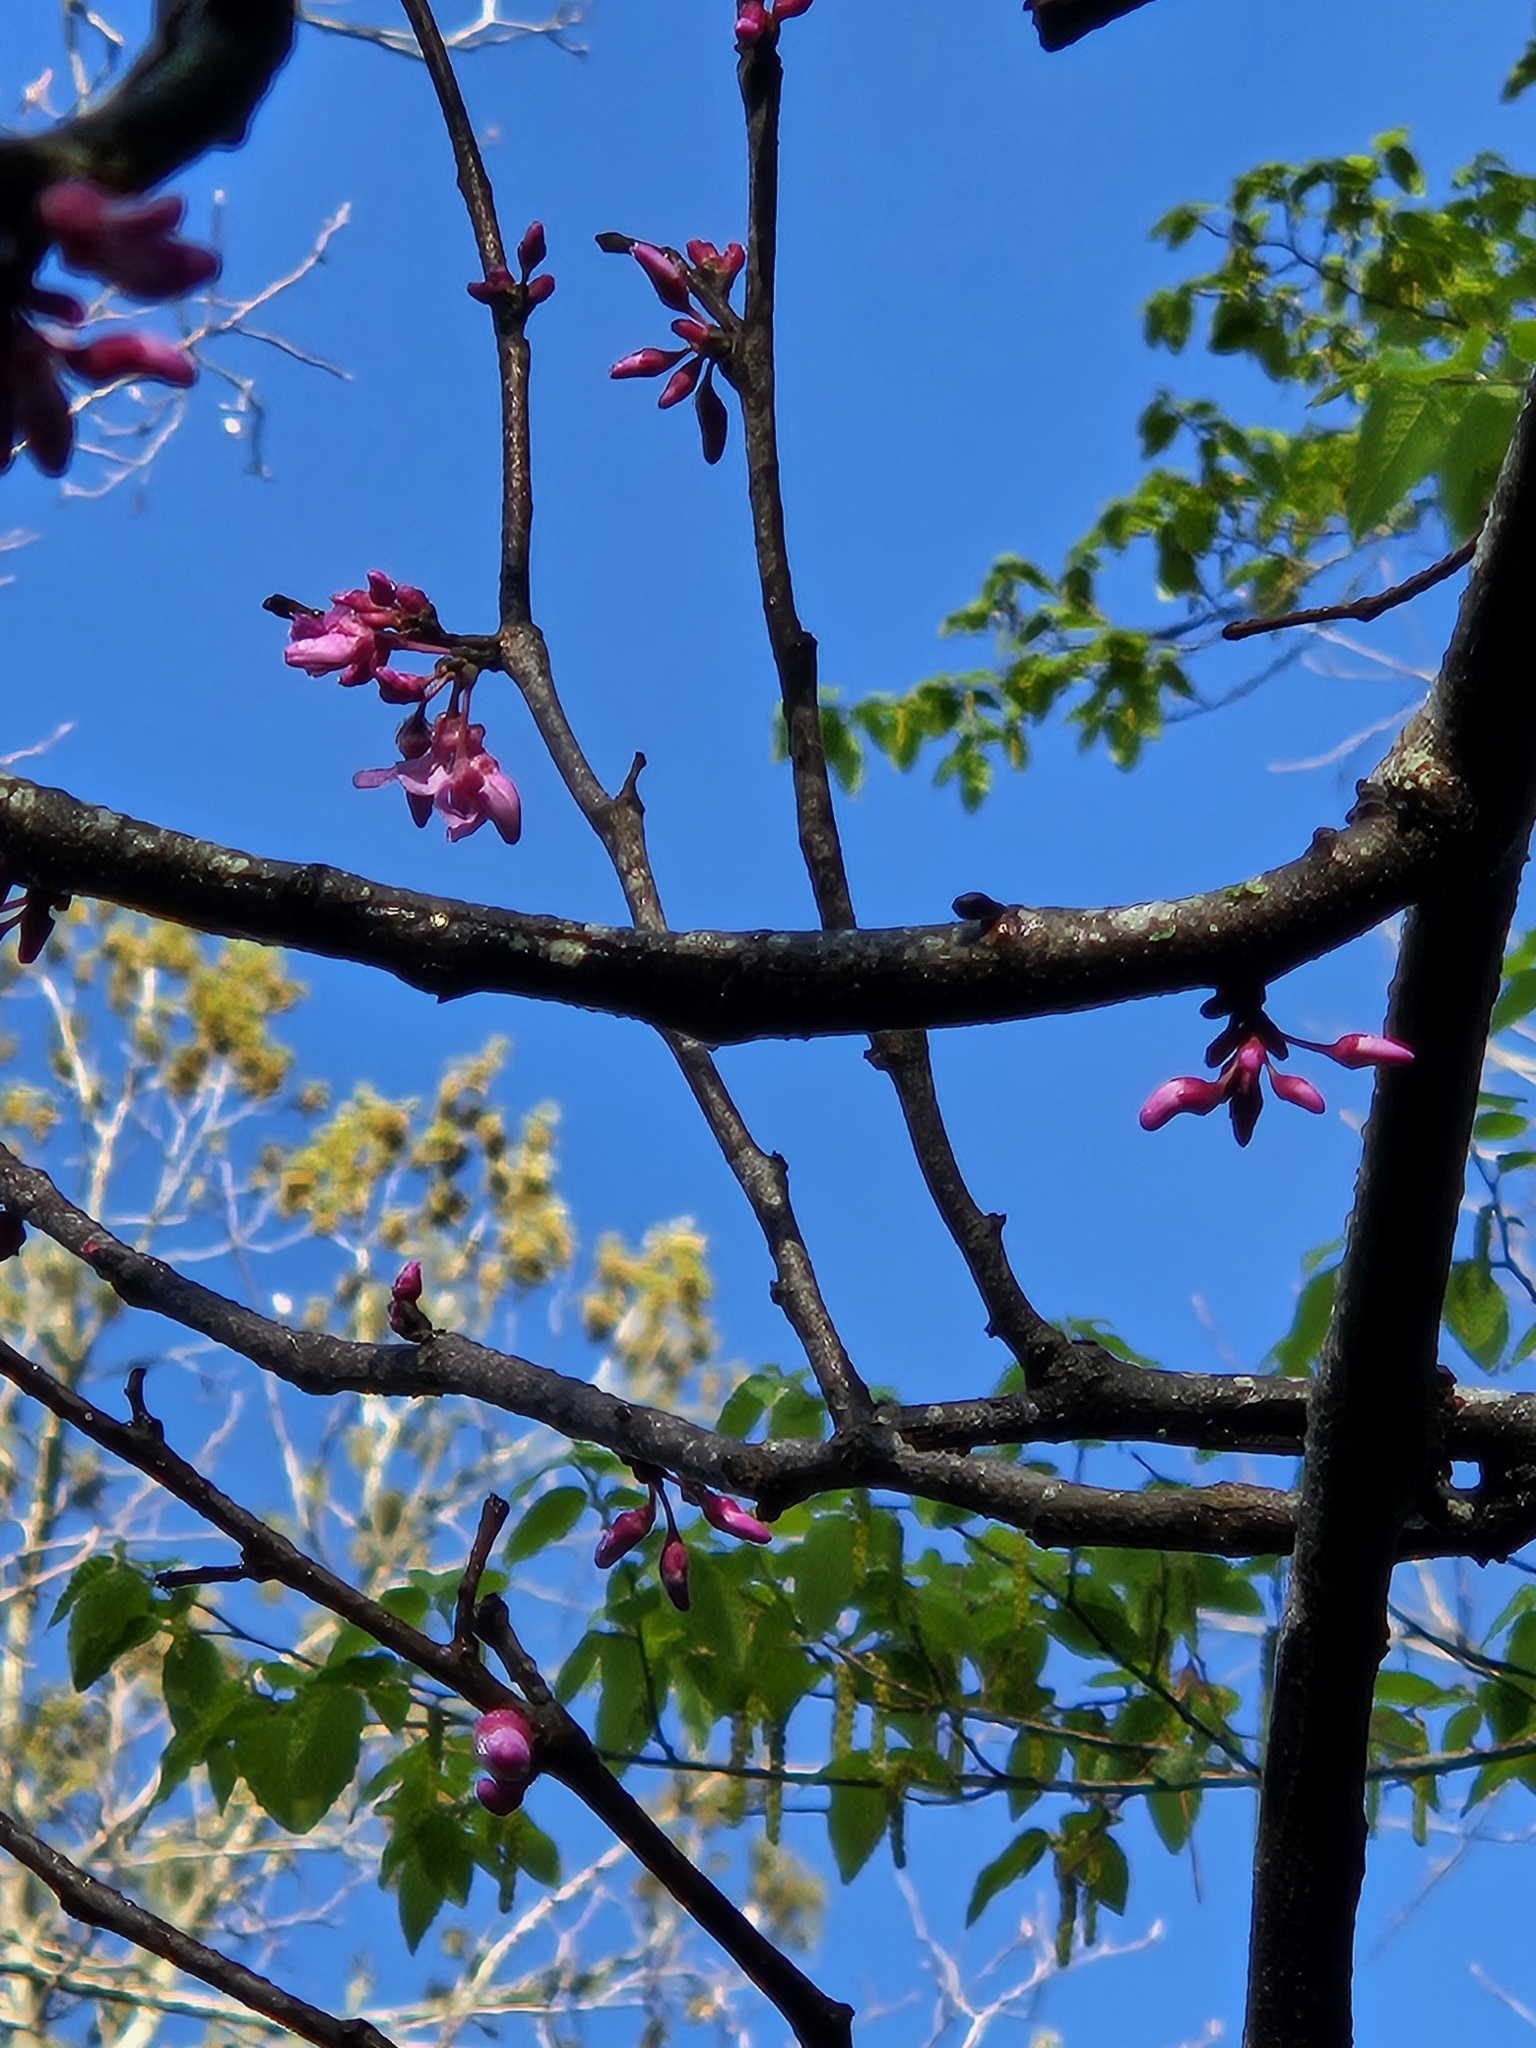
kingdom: Plantae
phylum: Tracheophyta
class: Magnoliopsida
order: Fabales
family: Fabaceae
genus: Cercis
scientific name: Cercis canadensis
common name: Eastern redbud
